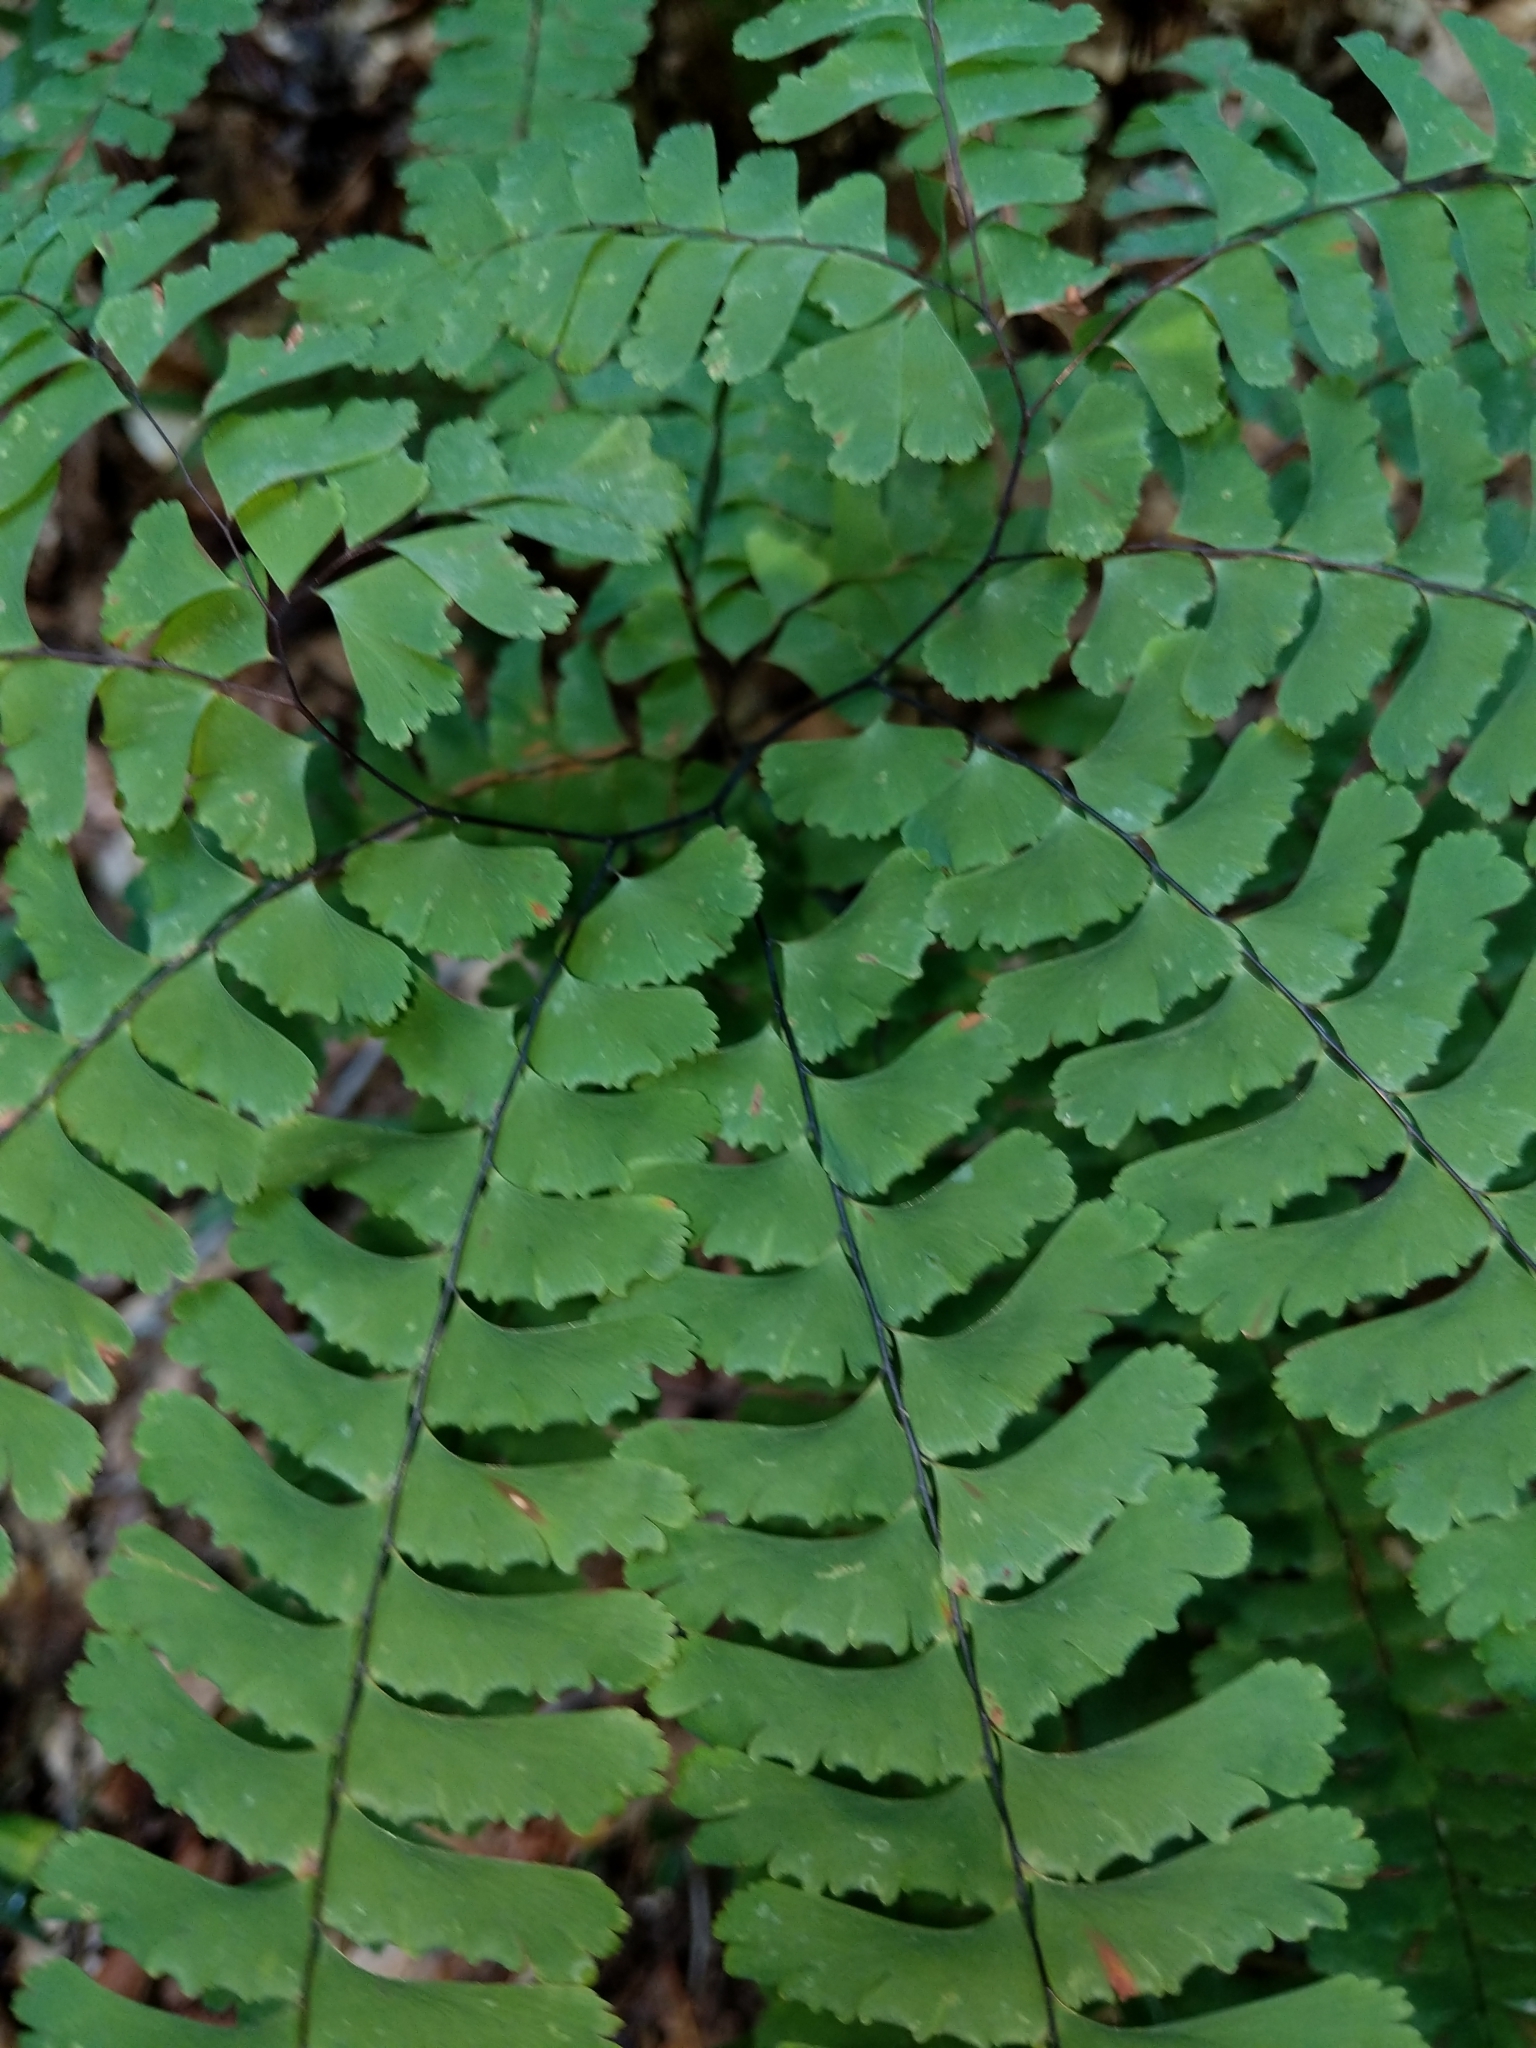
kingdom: Plantae
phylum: Tracheophyta
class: Polypodiopsida
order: Polypodiales
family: Pteridaceae
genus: Adiantum
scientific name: Adiantum pedatum
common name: Five-finger fern
